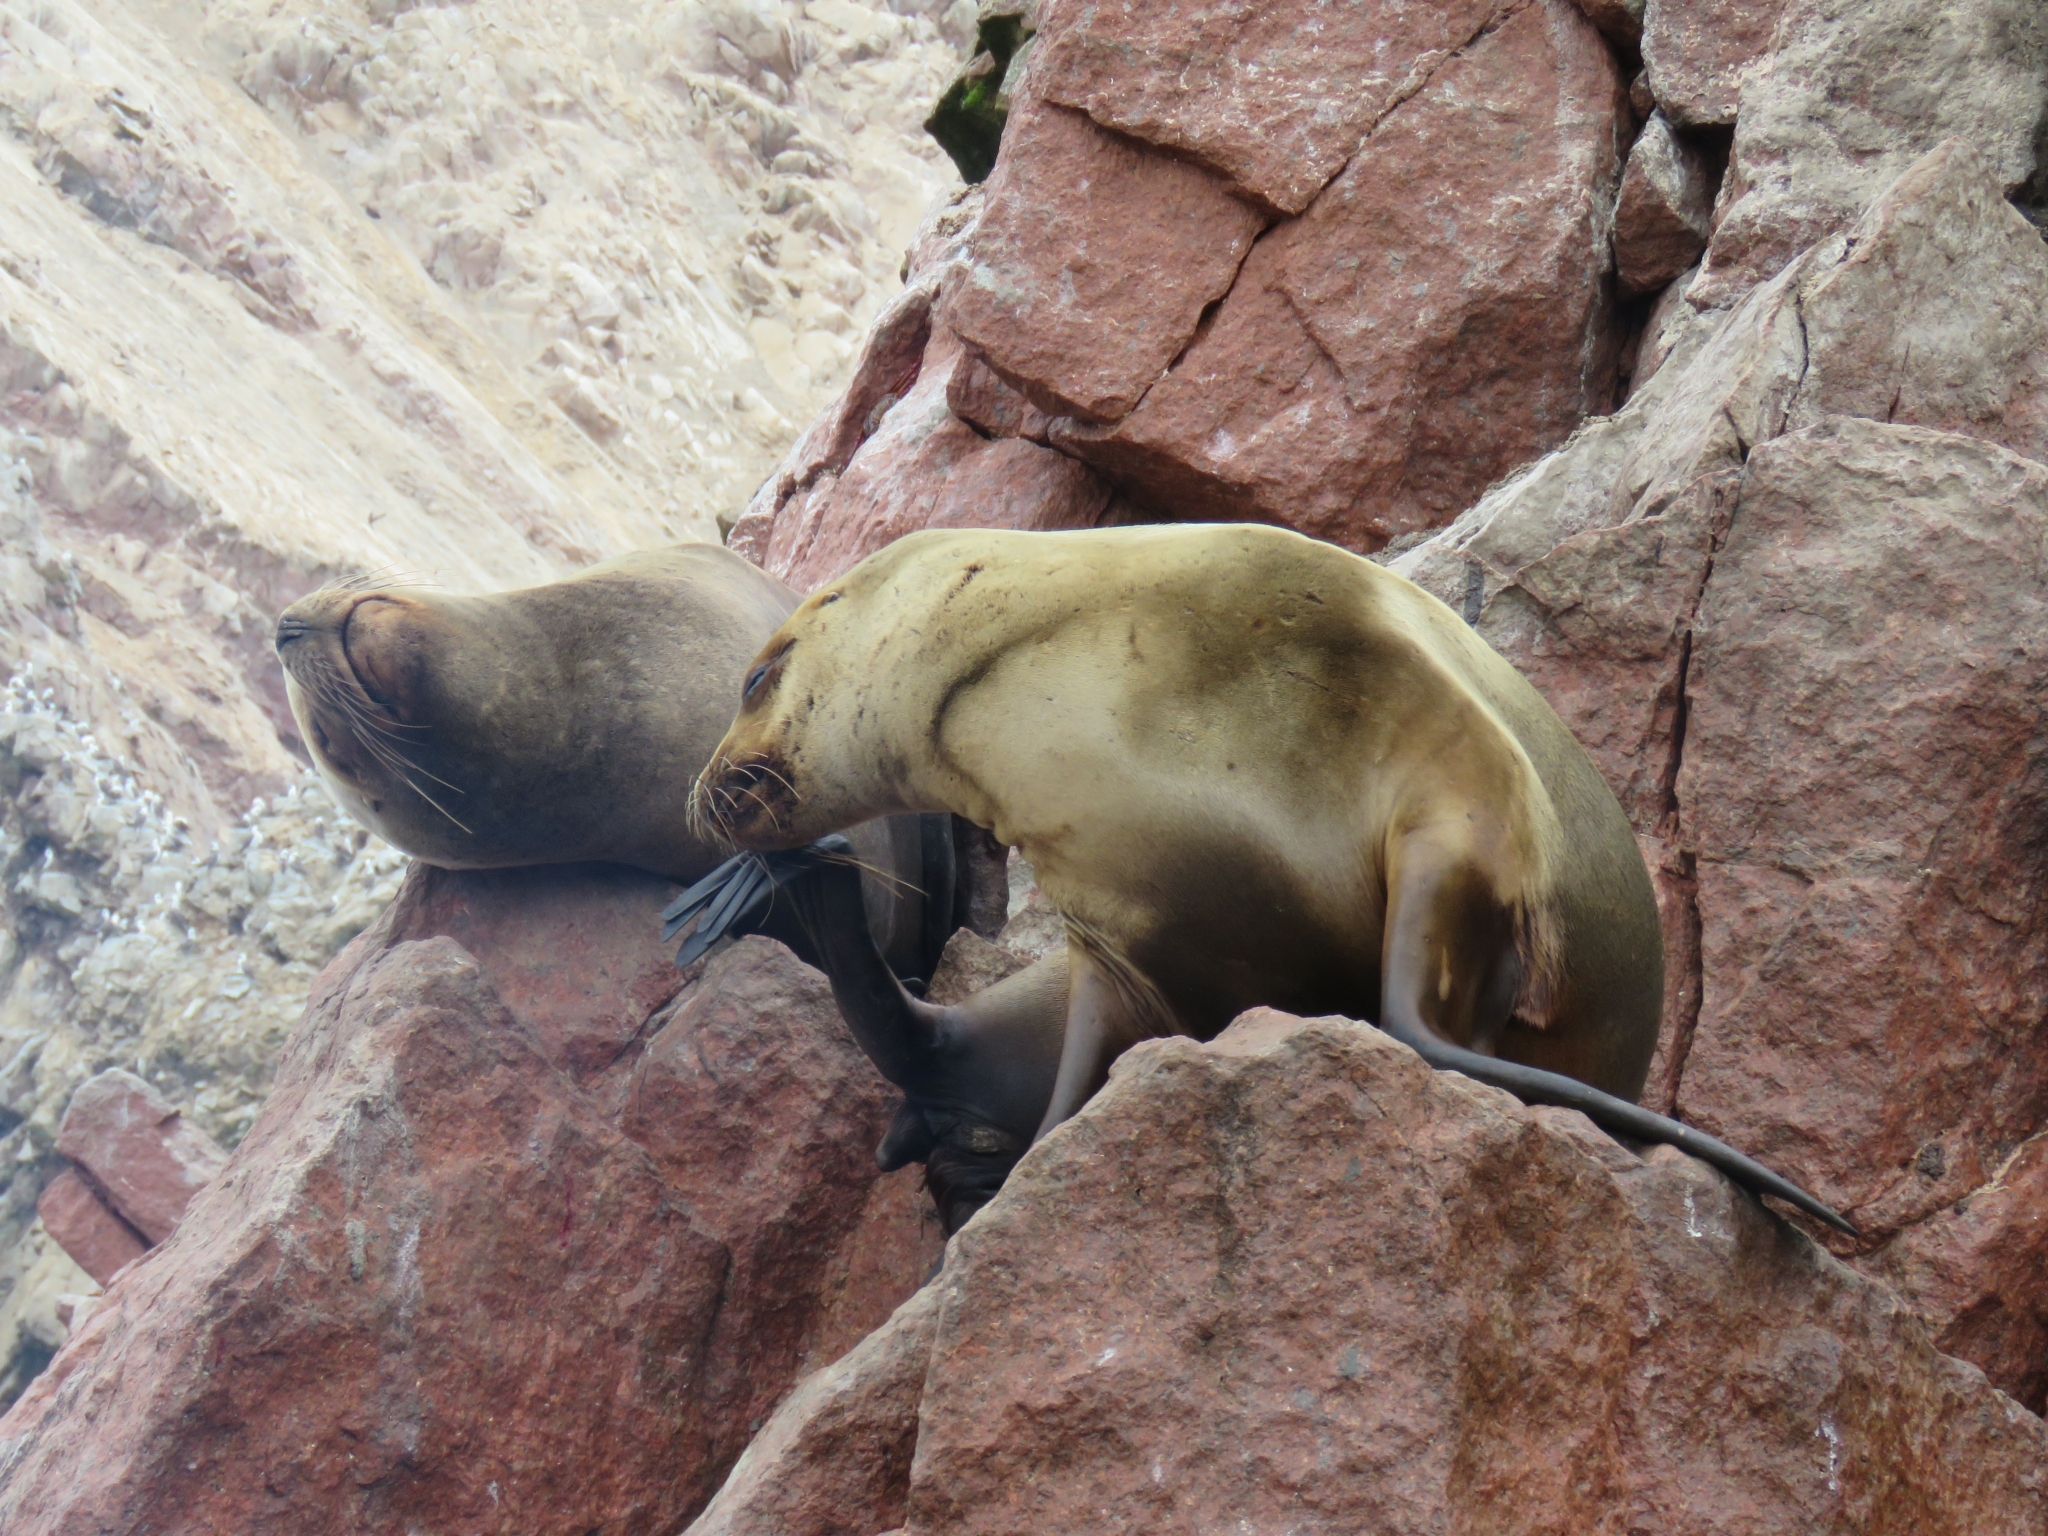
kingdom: Animalia
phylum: Chordata
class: Mammalia
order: Carnivora
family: Otariidae
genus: Otaria
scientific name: Otaria byronia
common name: South american sea lion
